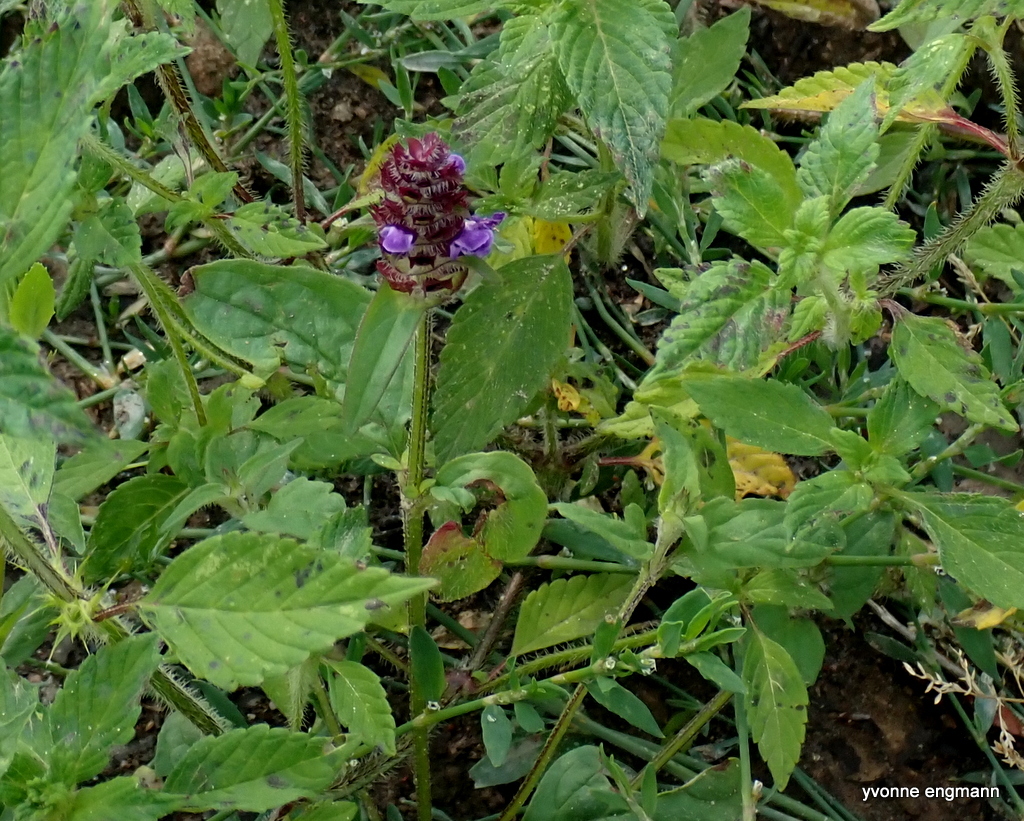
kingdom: Plantae
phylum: Tracheophyta
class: Magnoliopsida
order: Lamiales
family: Lamiaceae
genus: Prunella
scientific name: Prunella vulgaris
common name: Heal-all
